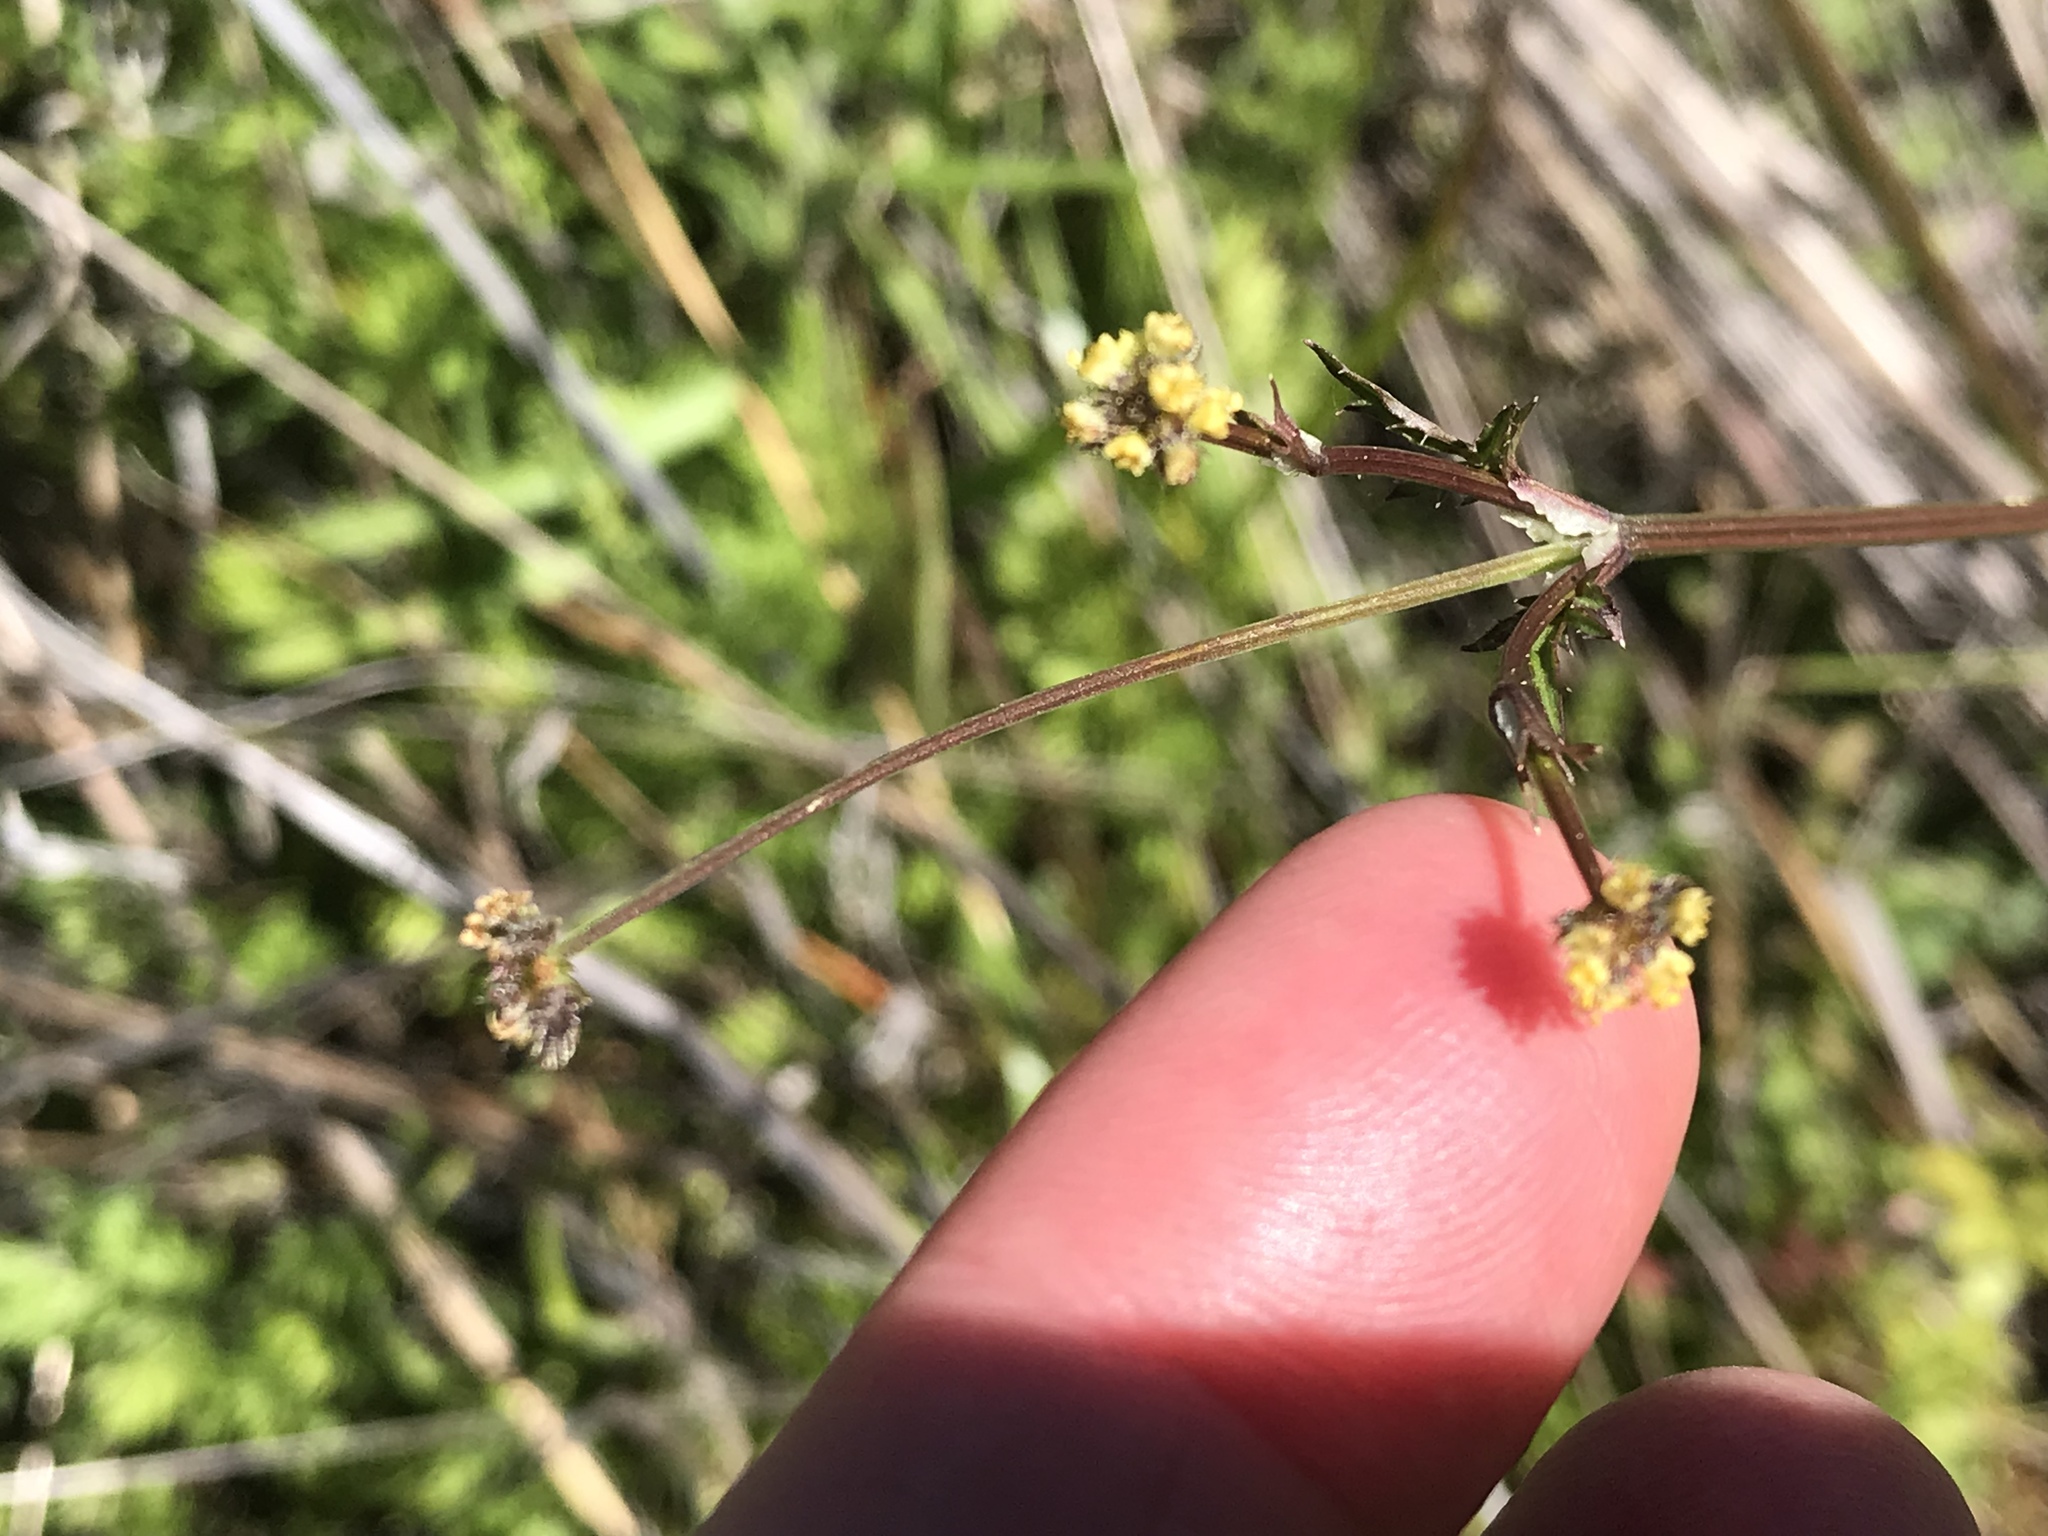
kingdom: Plantae
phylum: Tracheophyta
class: Magnoliopsida
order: Apiales
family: Apiaceae
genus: Sanicula
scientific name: Sanicula bipinnata
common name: Poison sanicle
